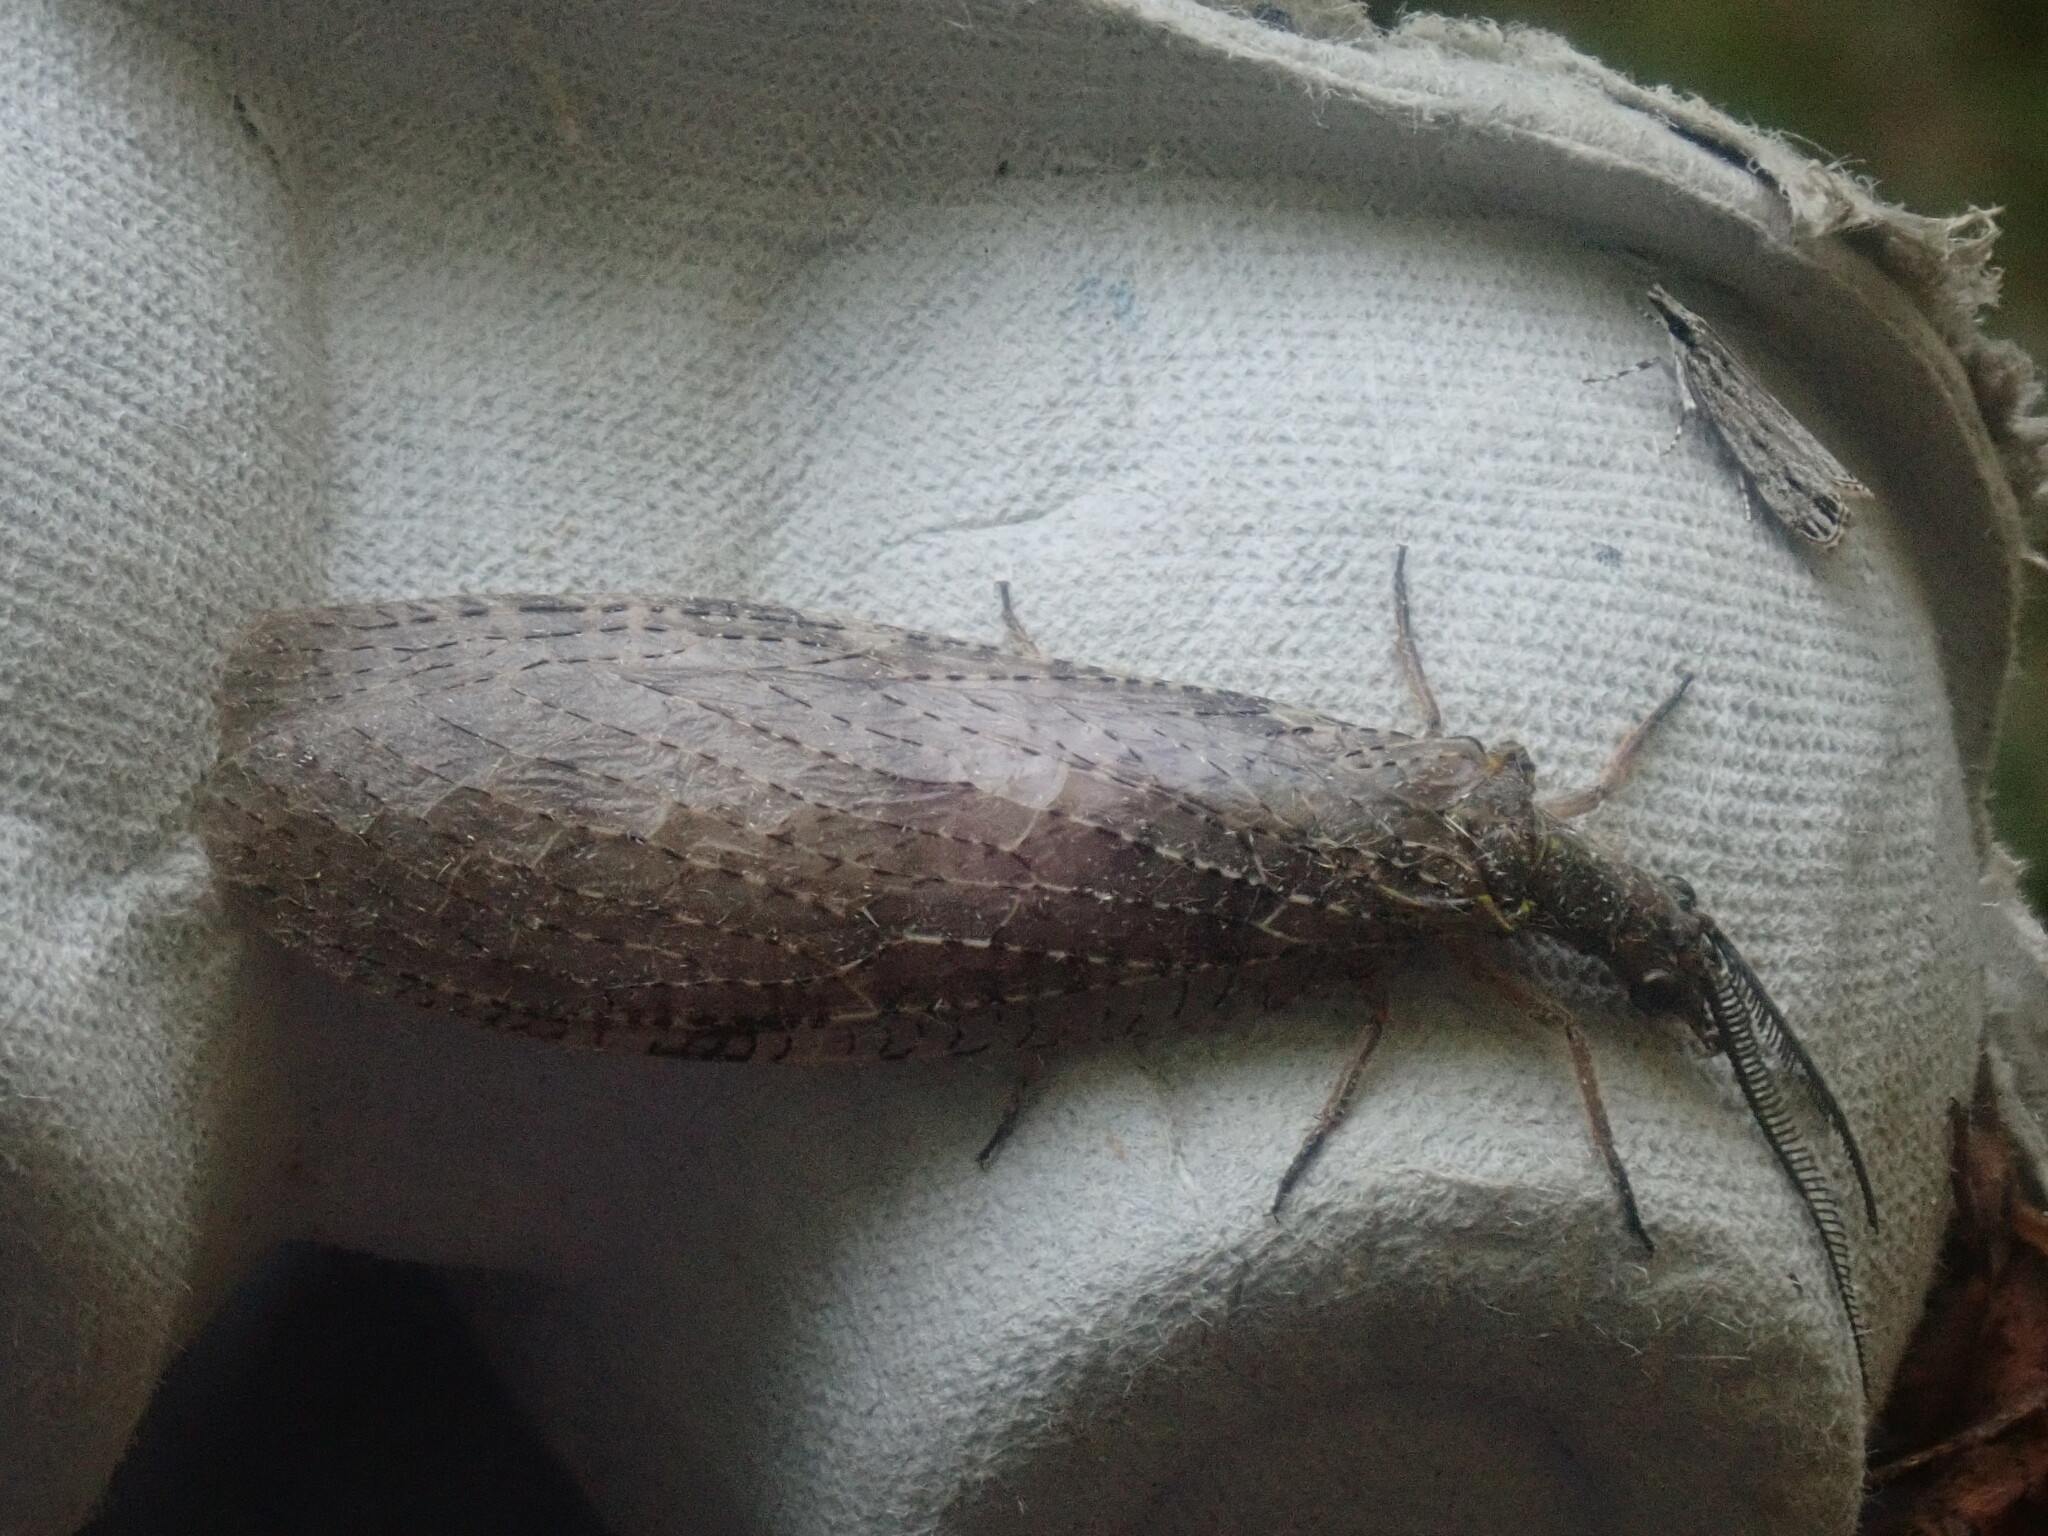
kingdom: Animalia
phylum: Arthropoda
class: Insecta
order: Megaloptera
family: Corydalidae
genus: Chauliodes
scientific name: Chauliodes pectinicornis
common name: Summer fishfly
